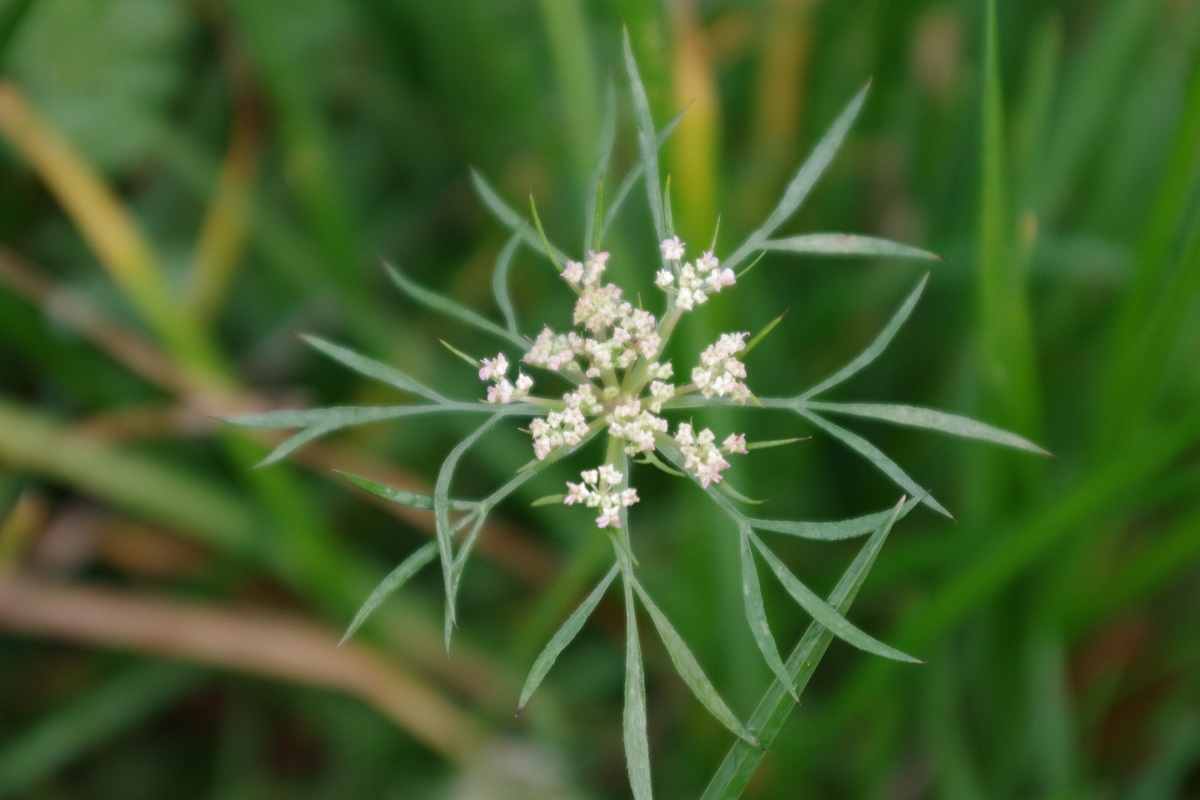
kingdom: Plantae
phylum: Tracheophyta
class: Magnoliopsida
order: Apiales
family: Apiaceae
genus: Daucus
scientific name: Daucus carota
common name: Wild carrot
